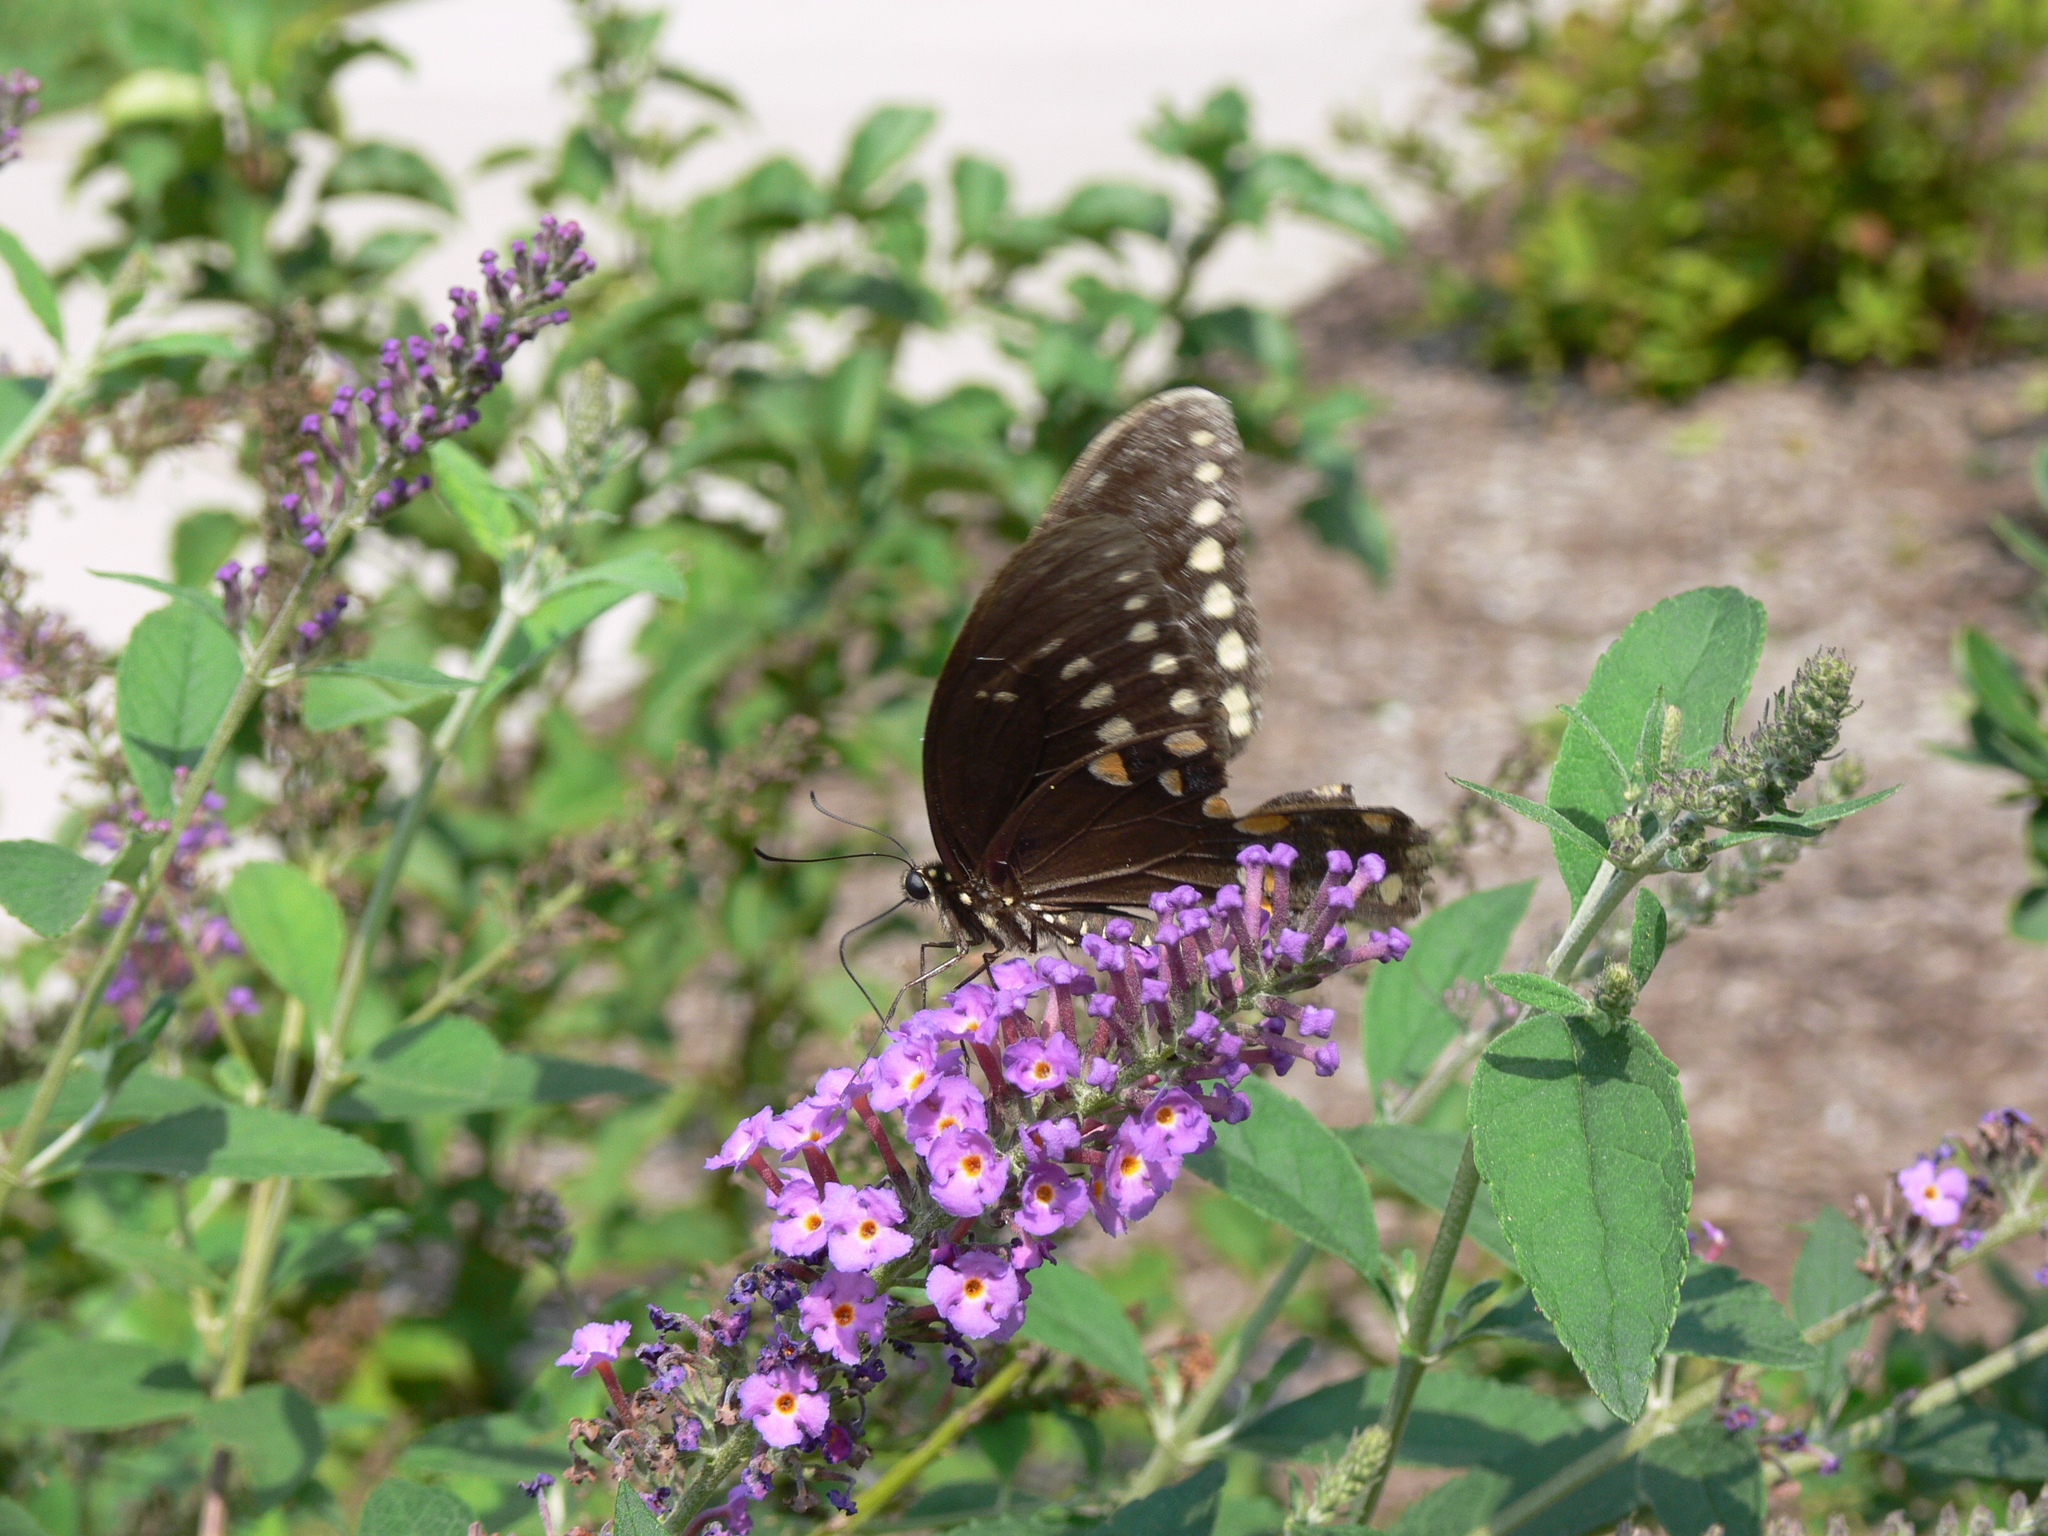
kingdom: Animalia
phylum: Arthropoda
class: Insecta
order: Lepidoptera
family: Papilionidae
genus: Papilio
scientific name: Papilio troilus
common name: Spicebush swallowtail
